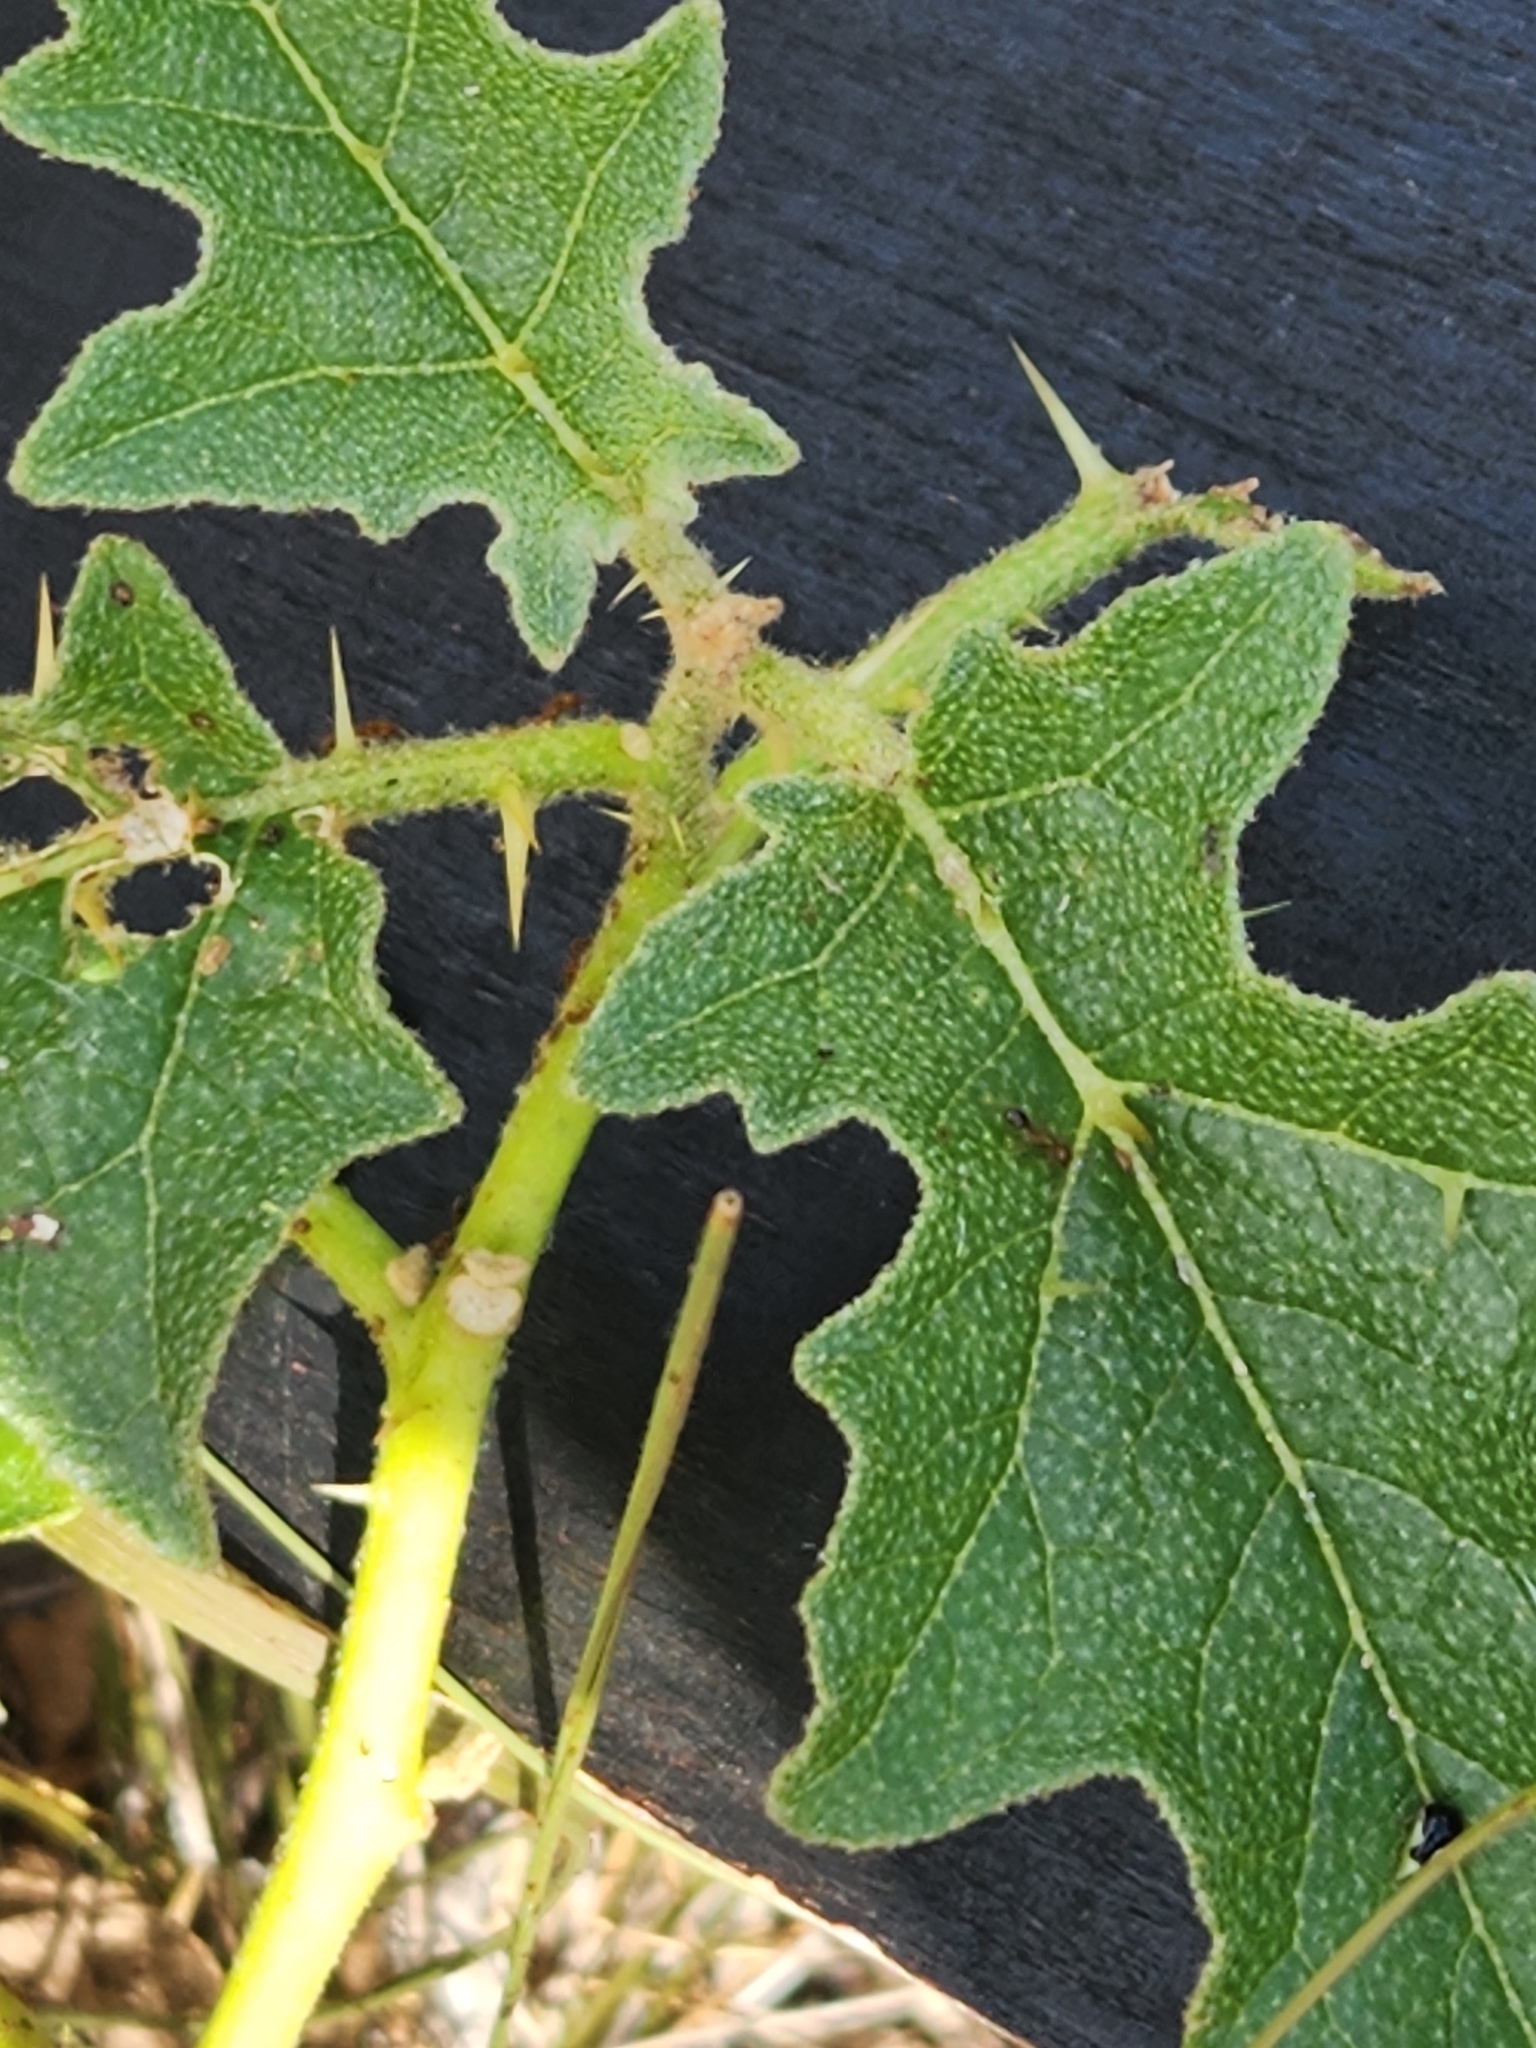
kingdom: Plantae
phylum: Tracheophyta
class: Magnoliopsida
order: Solanales
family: Solanaceae
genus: Solanum
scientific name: Solanum dimidiatum
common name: Carolina horse-nettle
